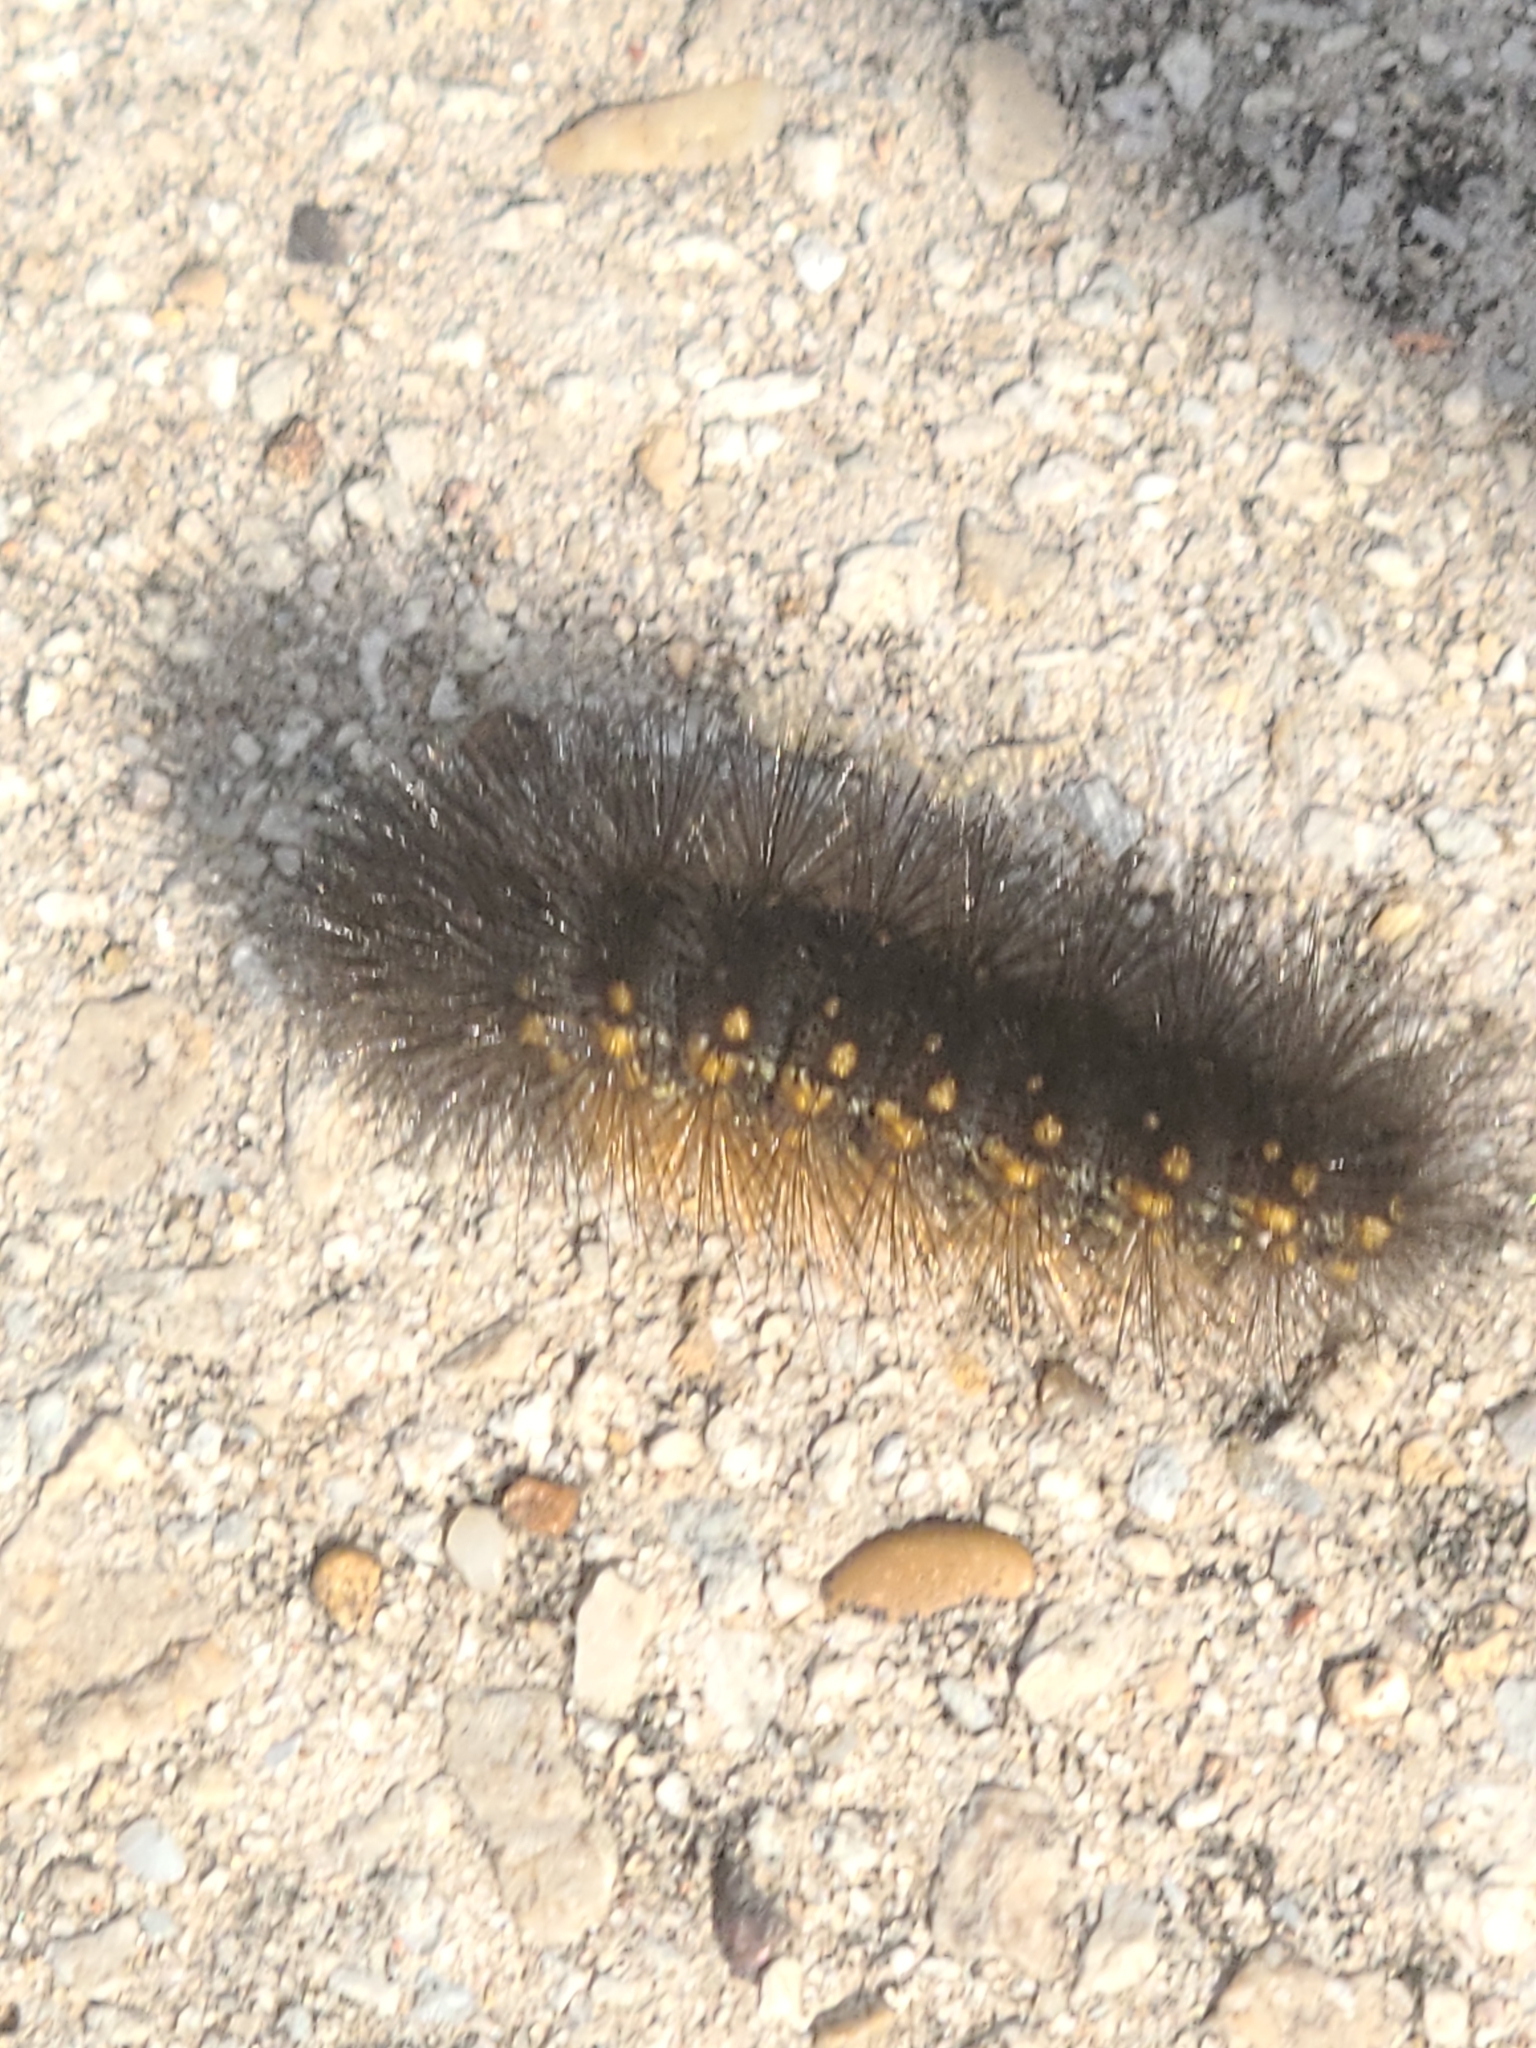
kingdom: Animalia
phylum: Arthropoda
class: Insecta
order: Lepidoptera
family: Erebidae
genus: Estigmene
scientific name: Estigmene acrea
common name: Salt marsh moth
